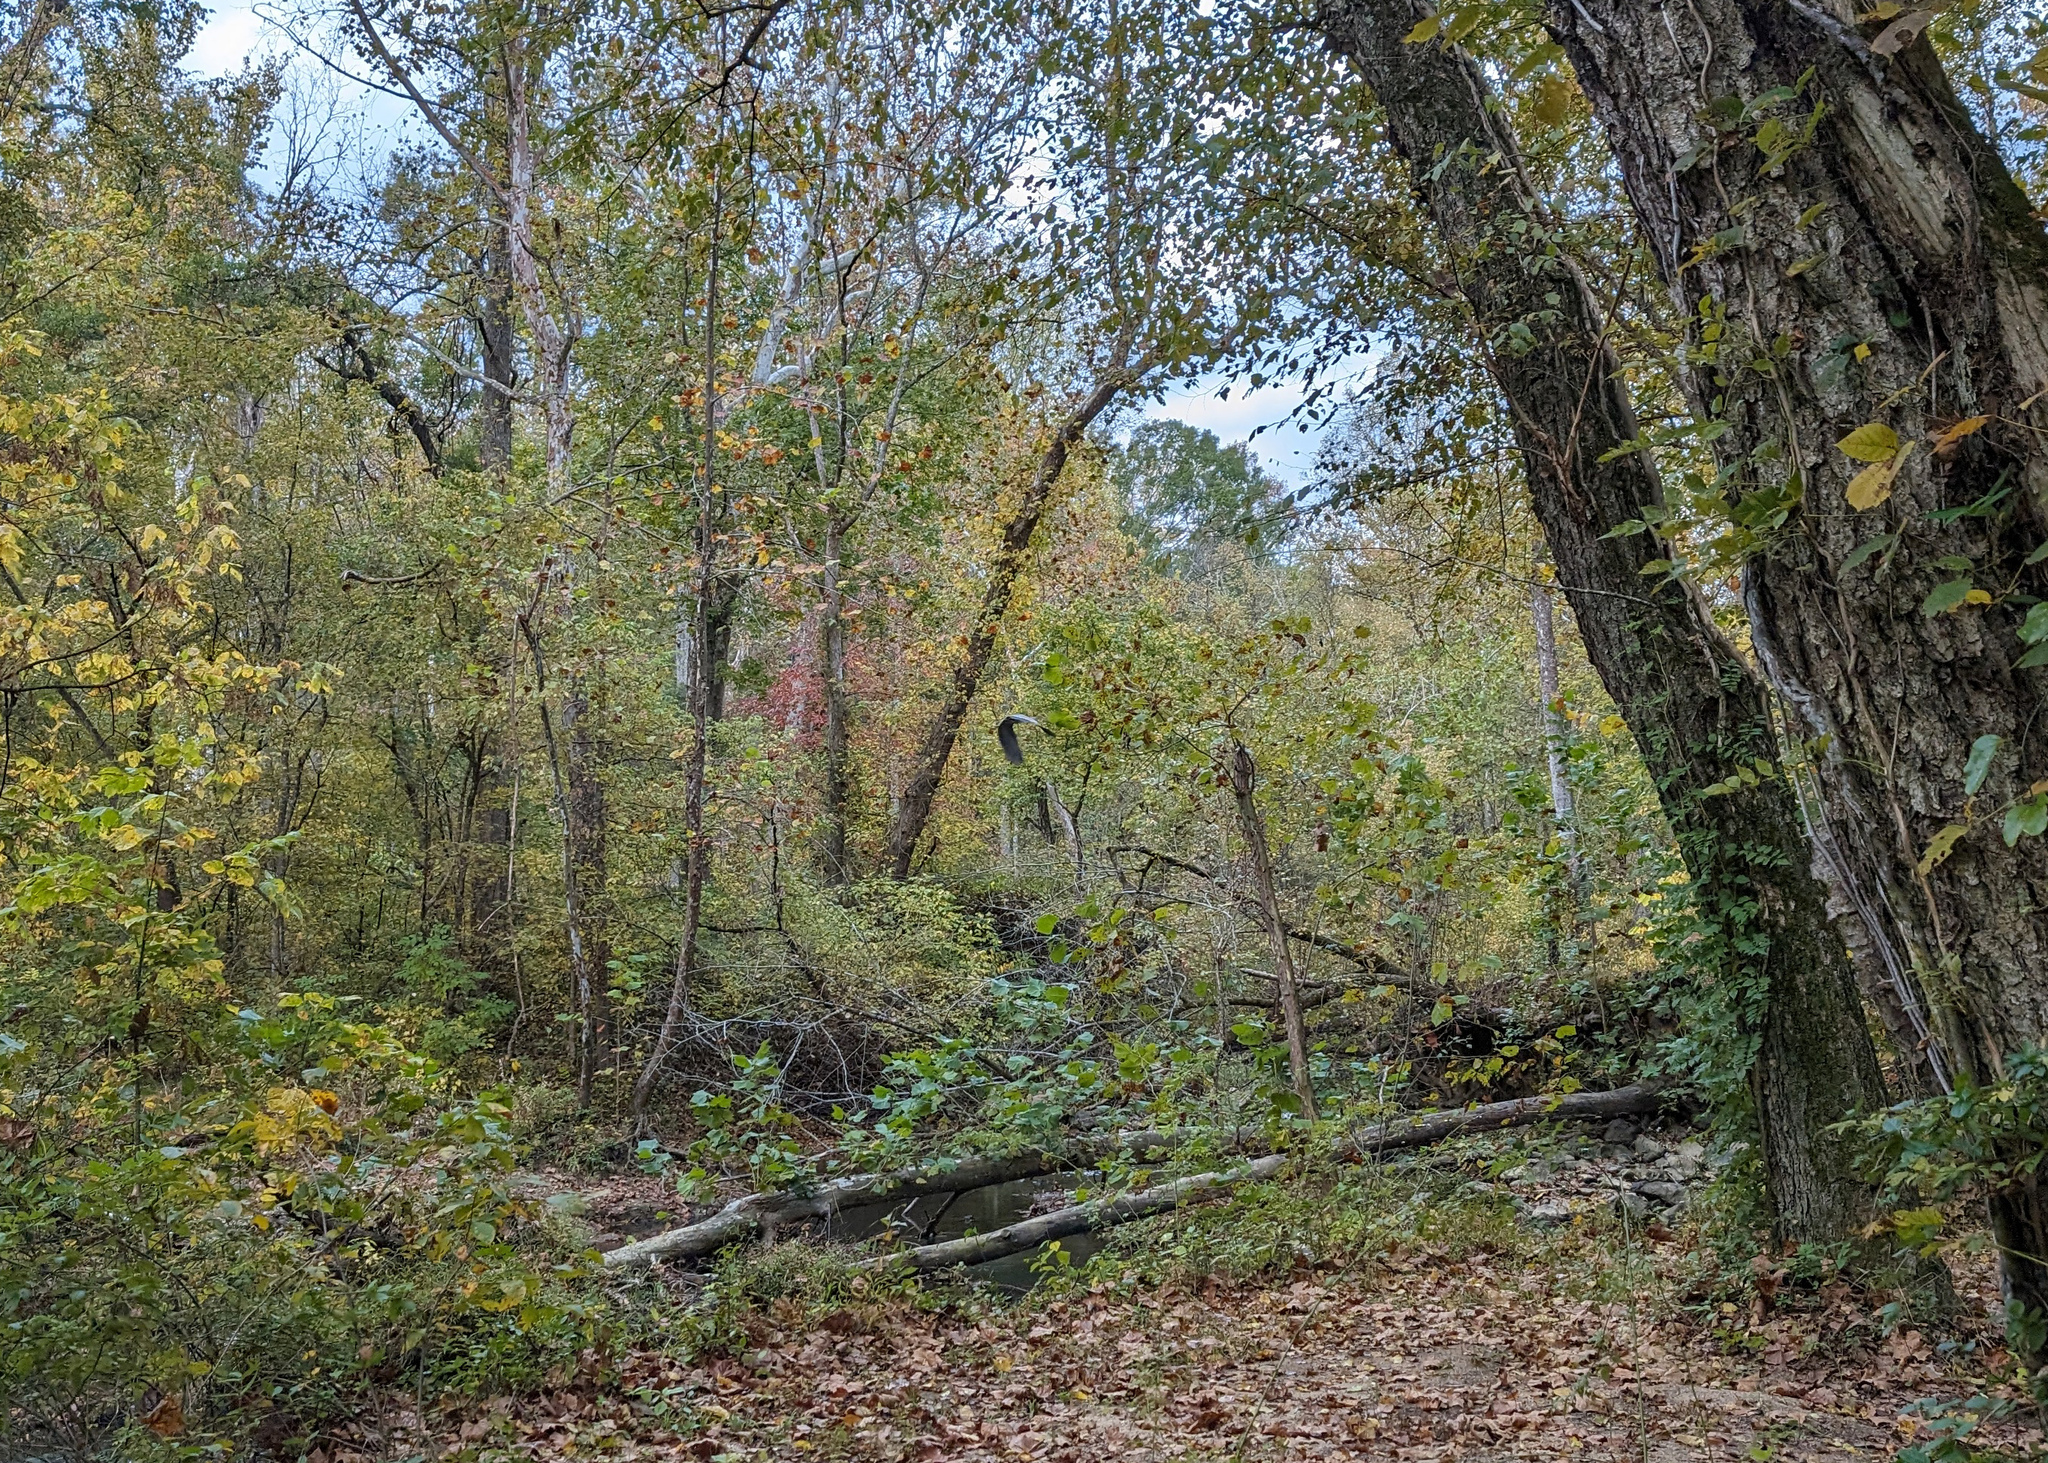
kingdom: Animalia
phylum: Chordata
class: Aves
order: Pelecaniformes
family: Ardeidae
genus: Ardea
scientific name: Ardea herodias
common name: Great blue heron
